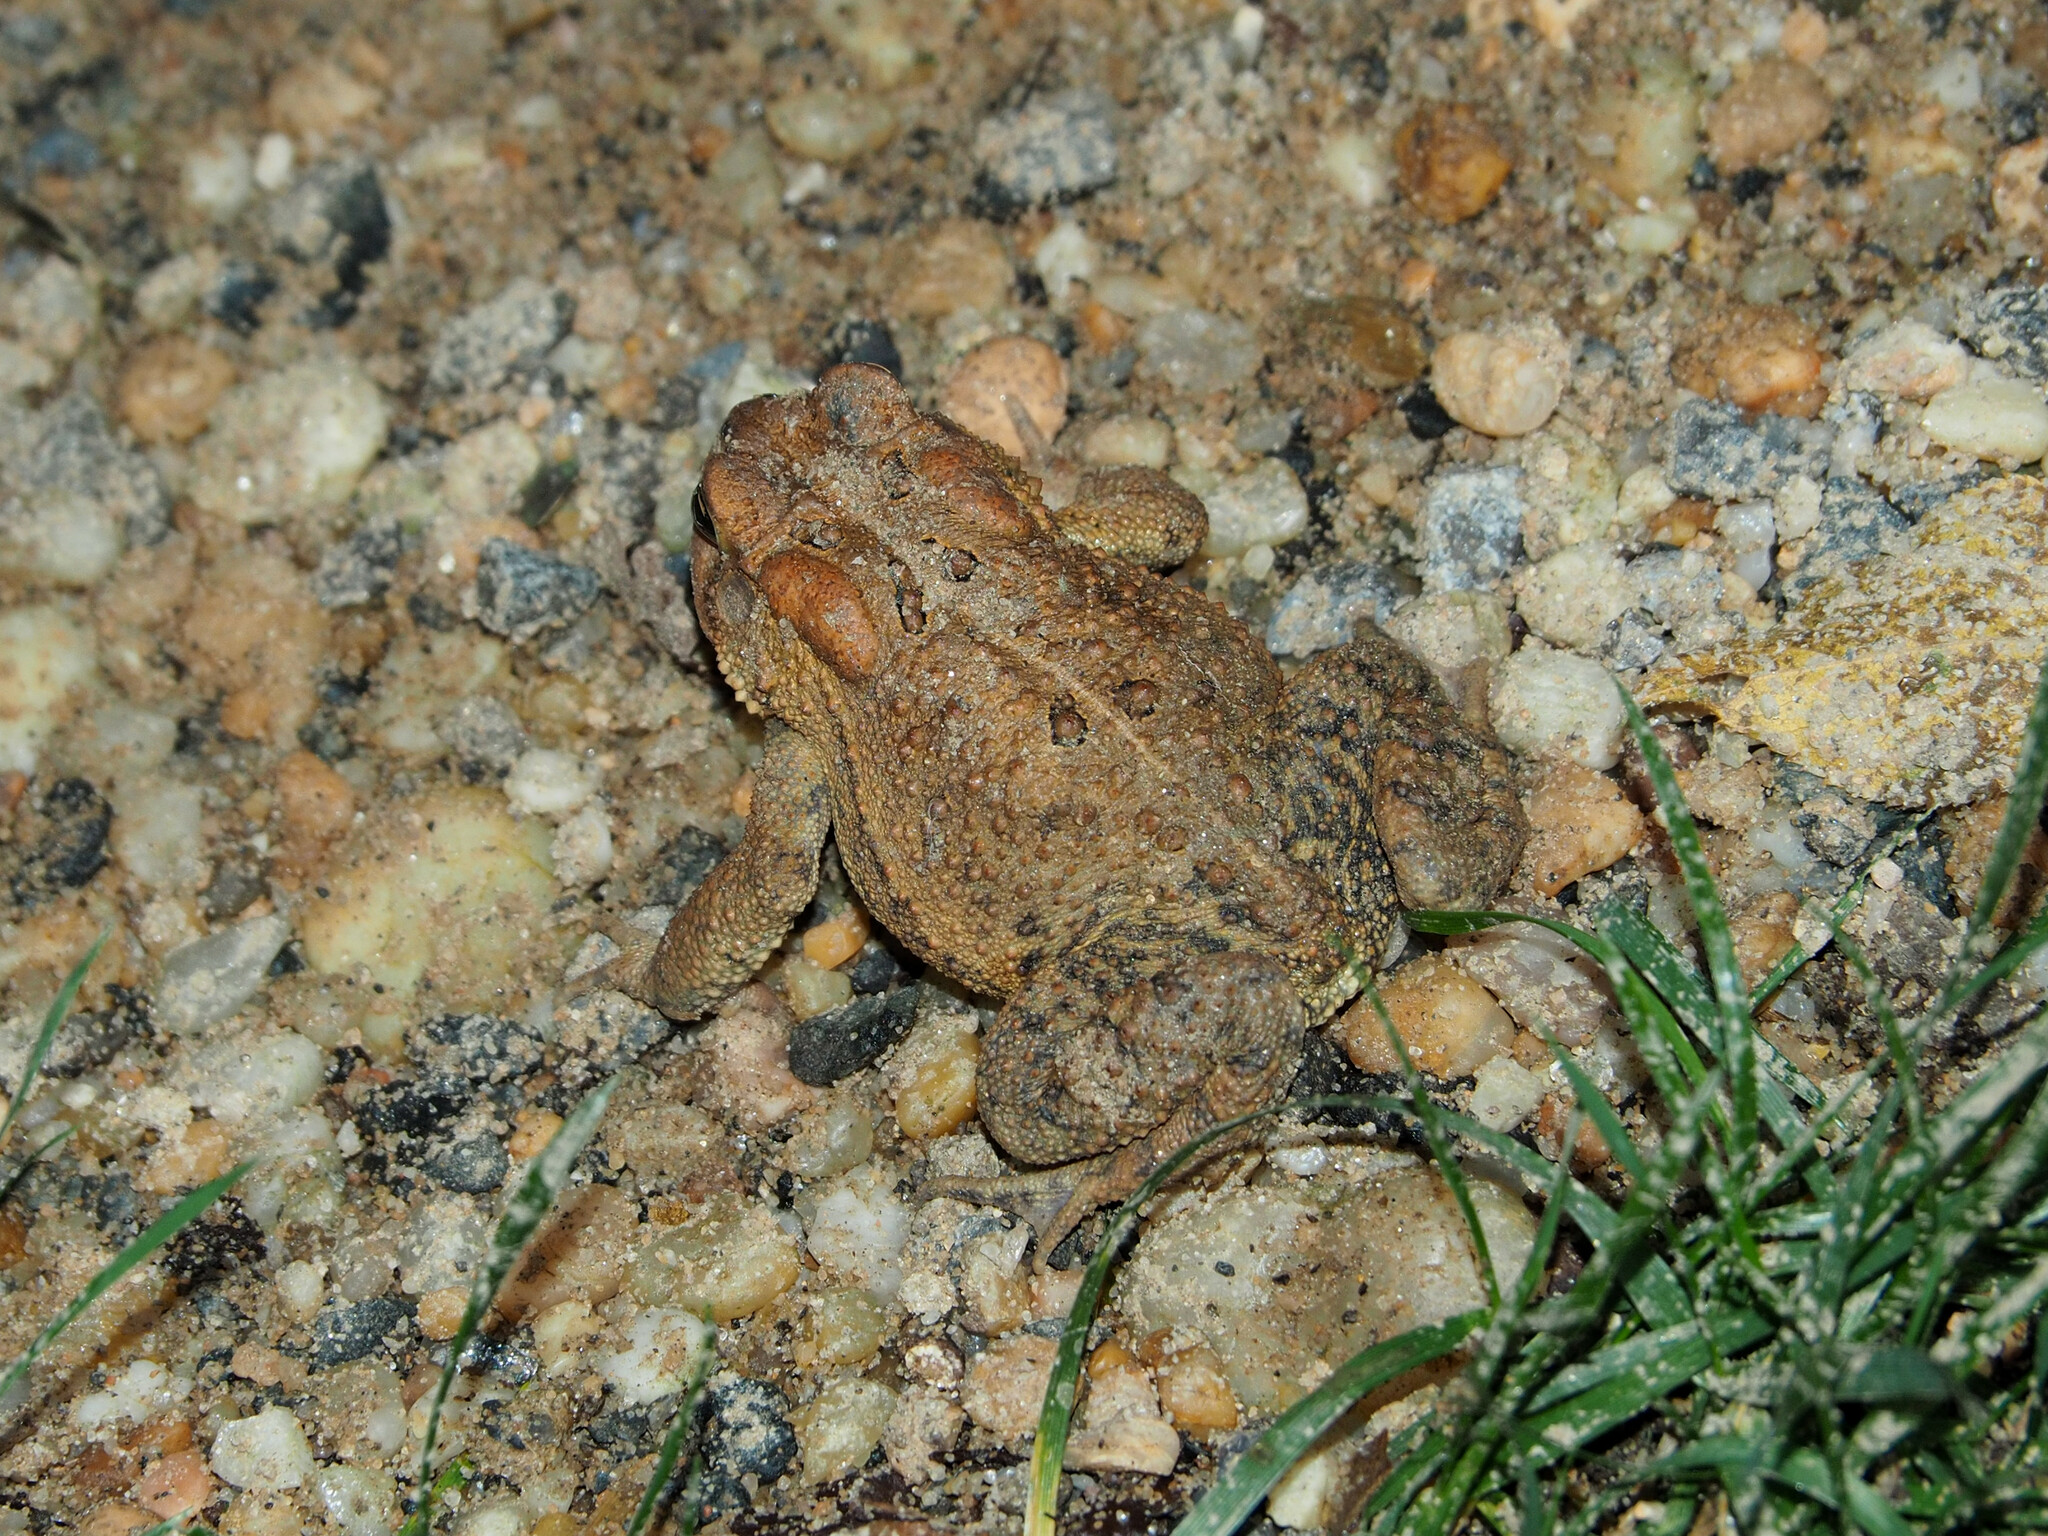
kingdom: Animalia
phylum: Chordata
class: Amphibia
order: Anura
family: Bufonidae
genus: Anaxyrus
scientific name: Anaxyrus americanus
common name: American toad
